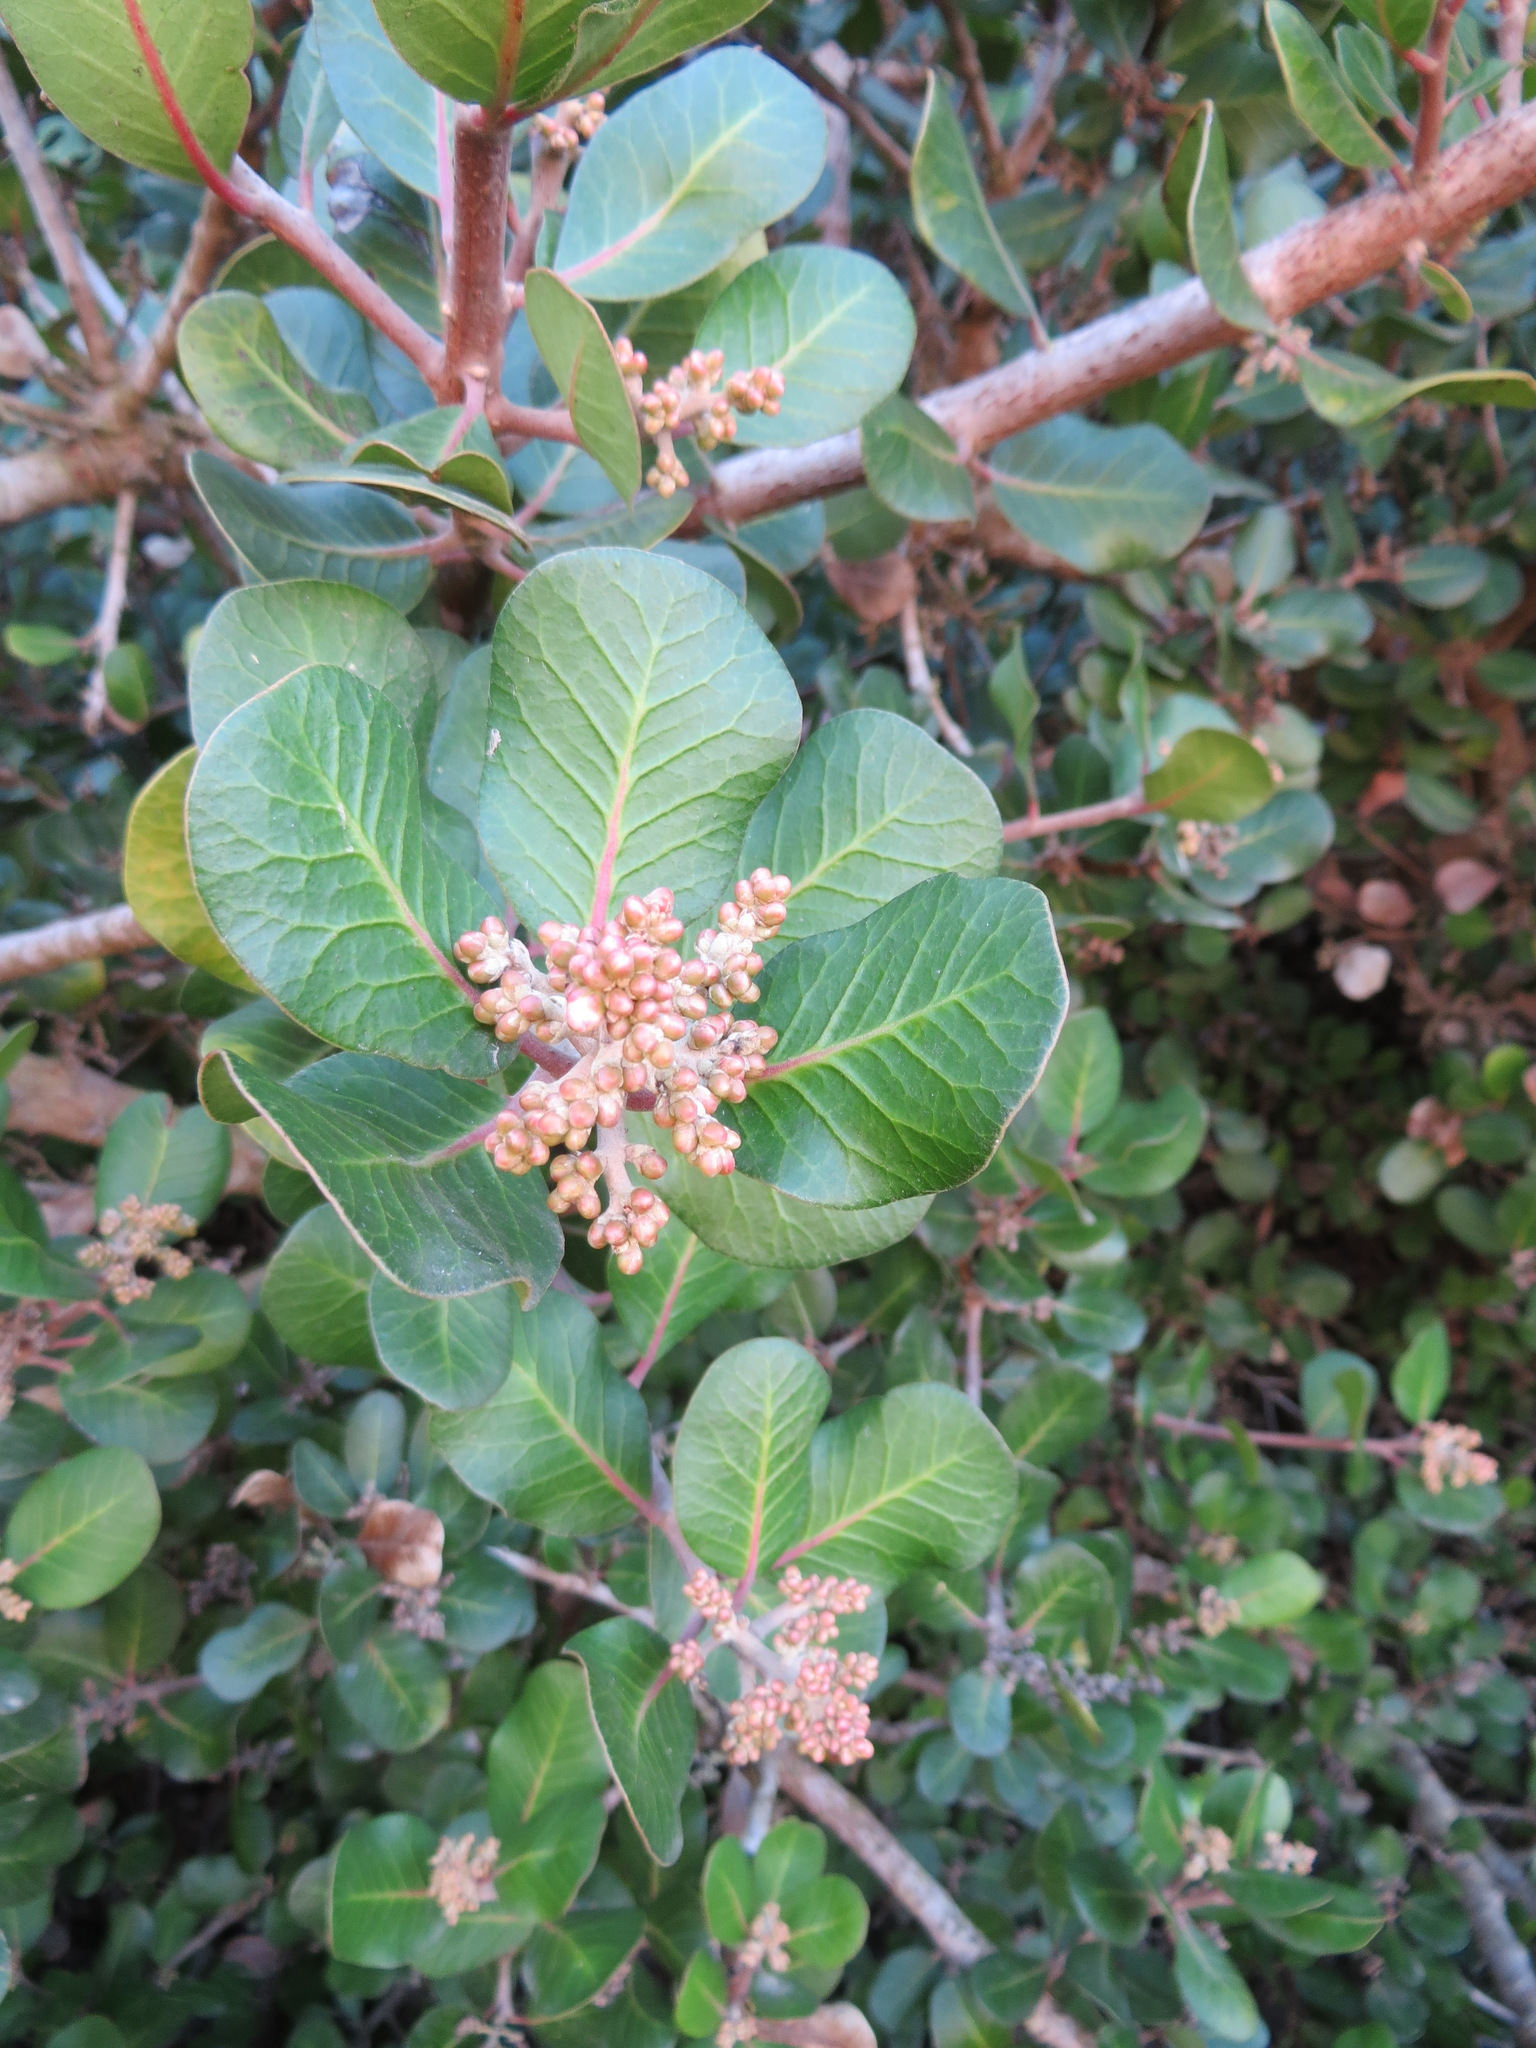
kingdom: Plantae
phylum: Tracheophyta
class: Magnoliopsida
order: Sapindales
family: Anacardiaceae
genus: Rhus
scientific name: Rhus integrifolia
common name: Lemonade sumac
